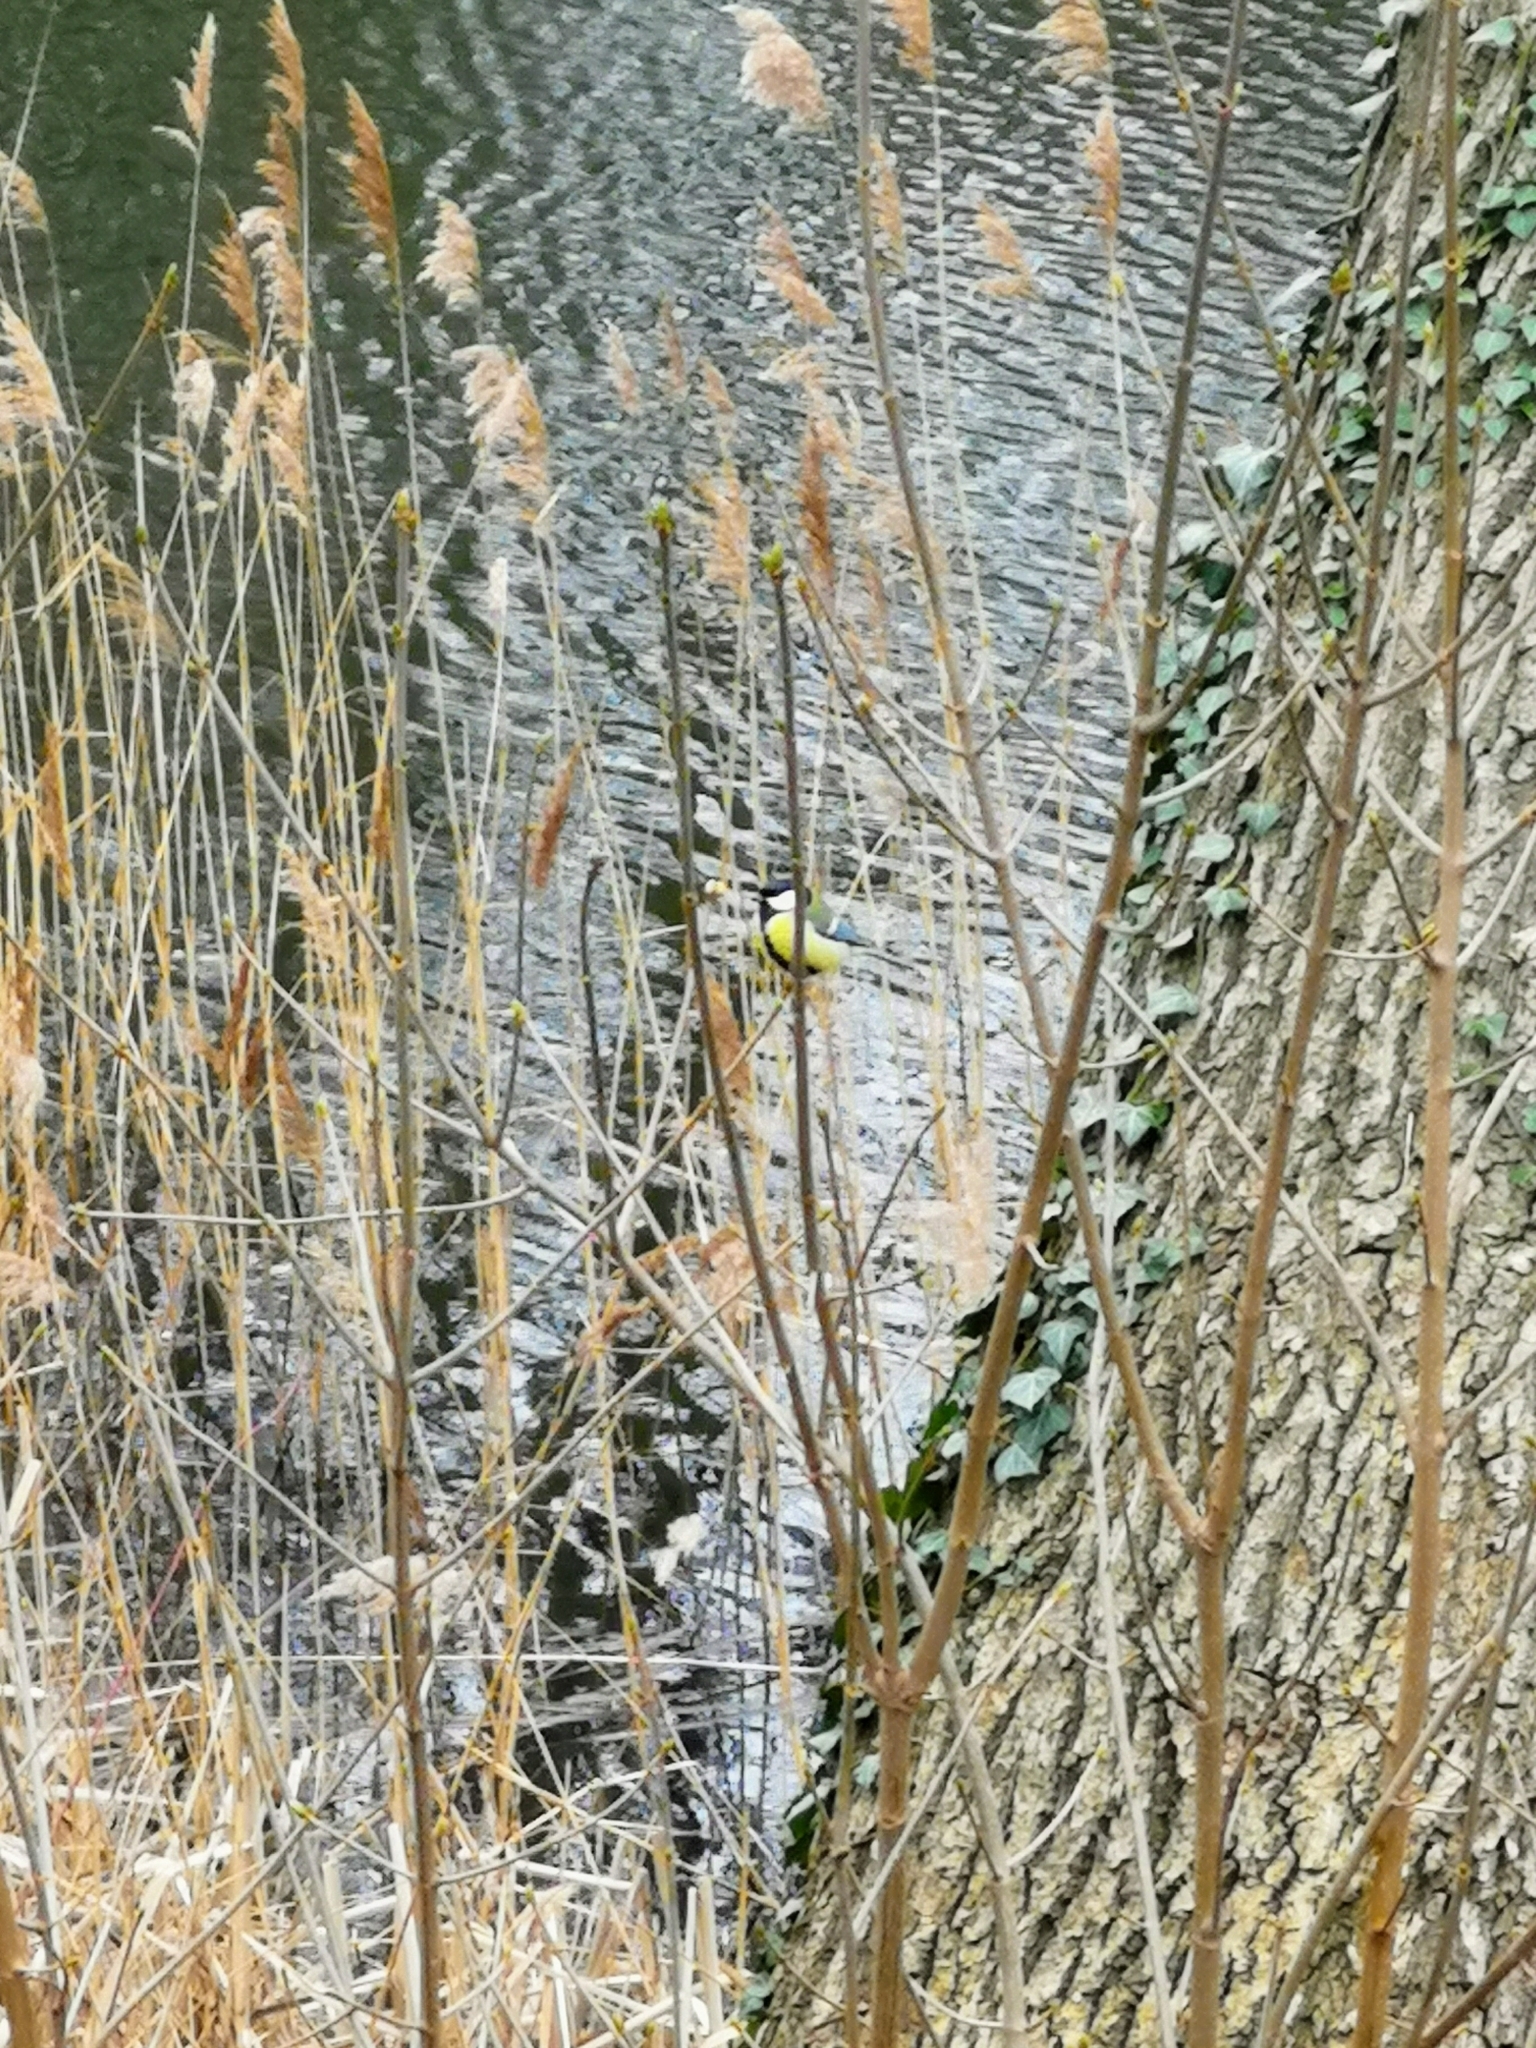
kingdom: Animalia
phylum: Chordata
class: Aves
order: Passeriformes
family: Paridae
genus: Parus
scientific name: Parus major
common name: Great tit
